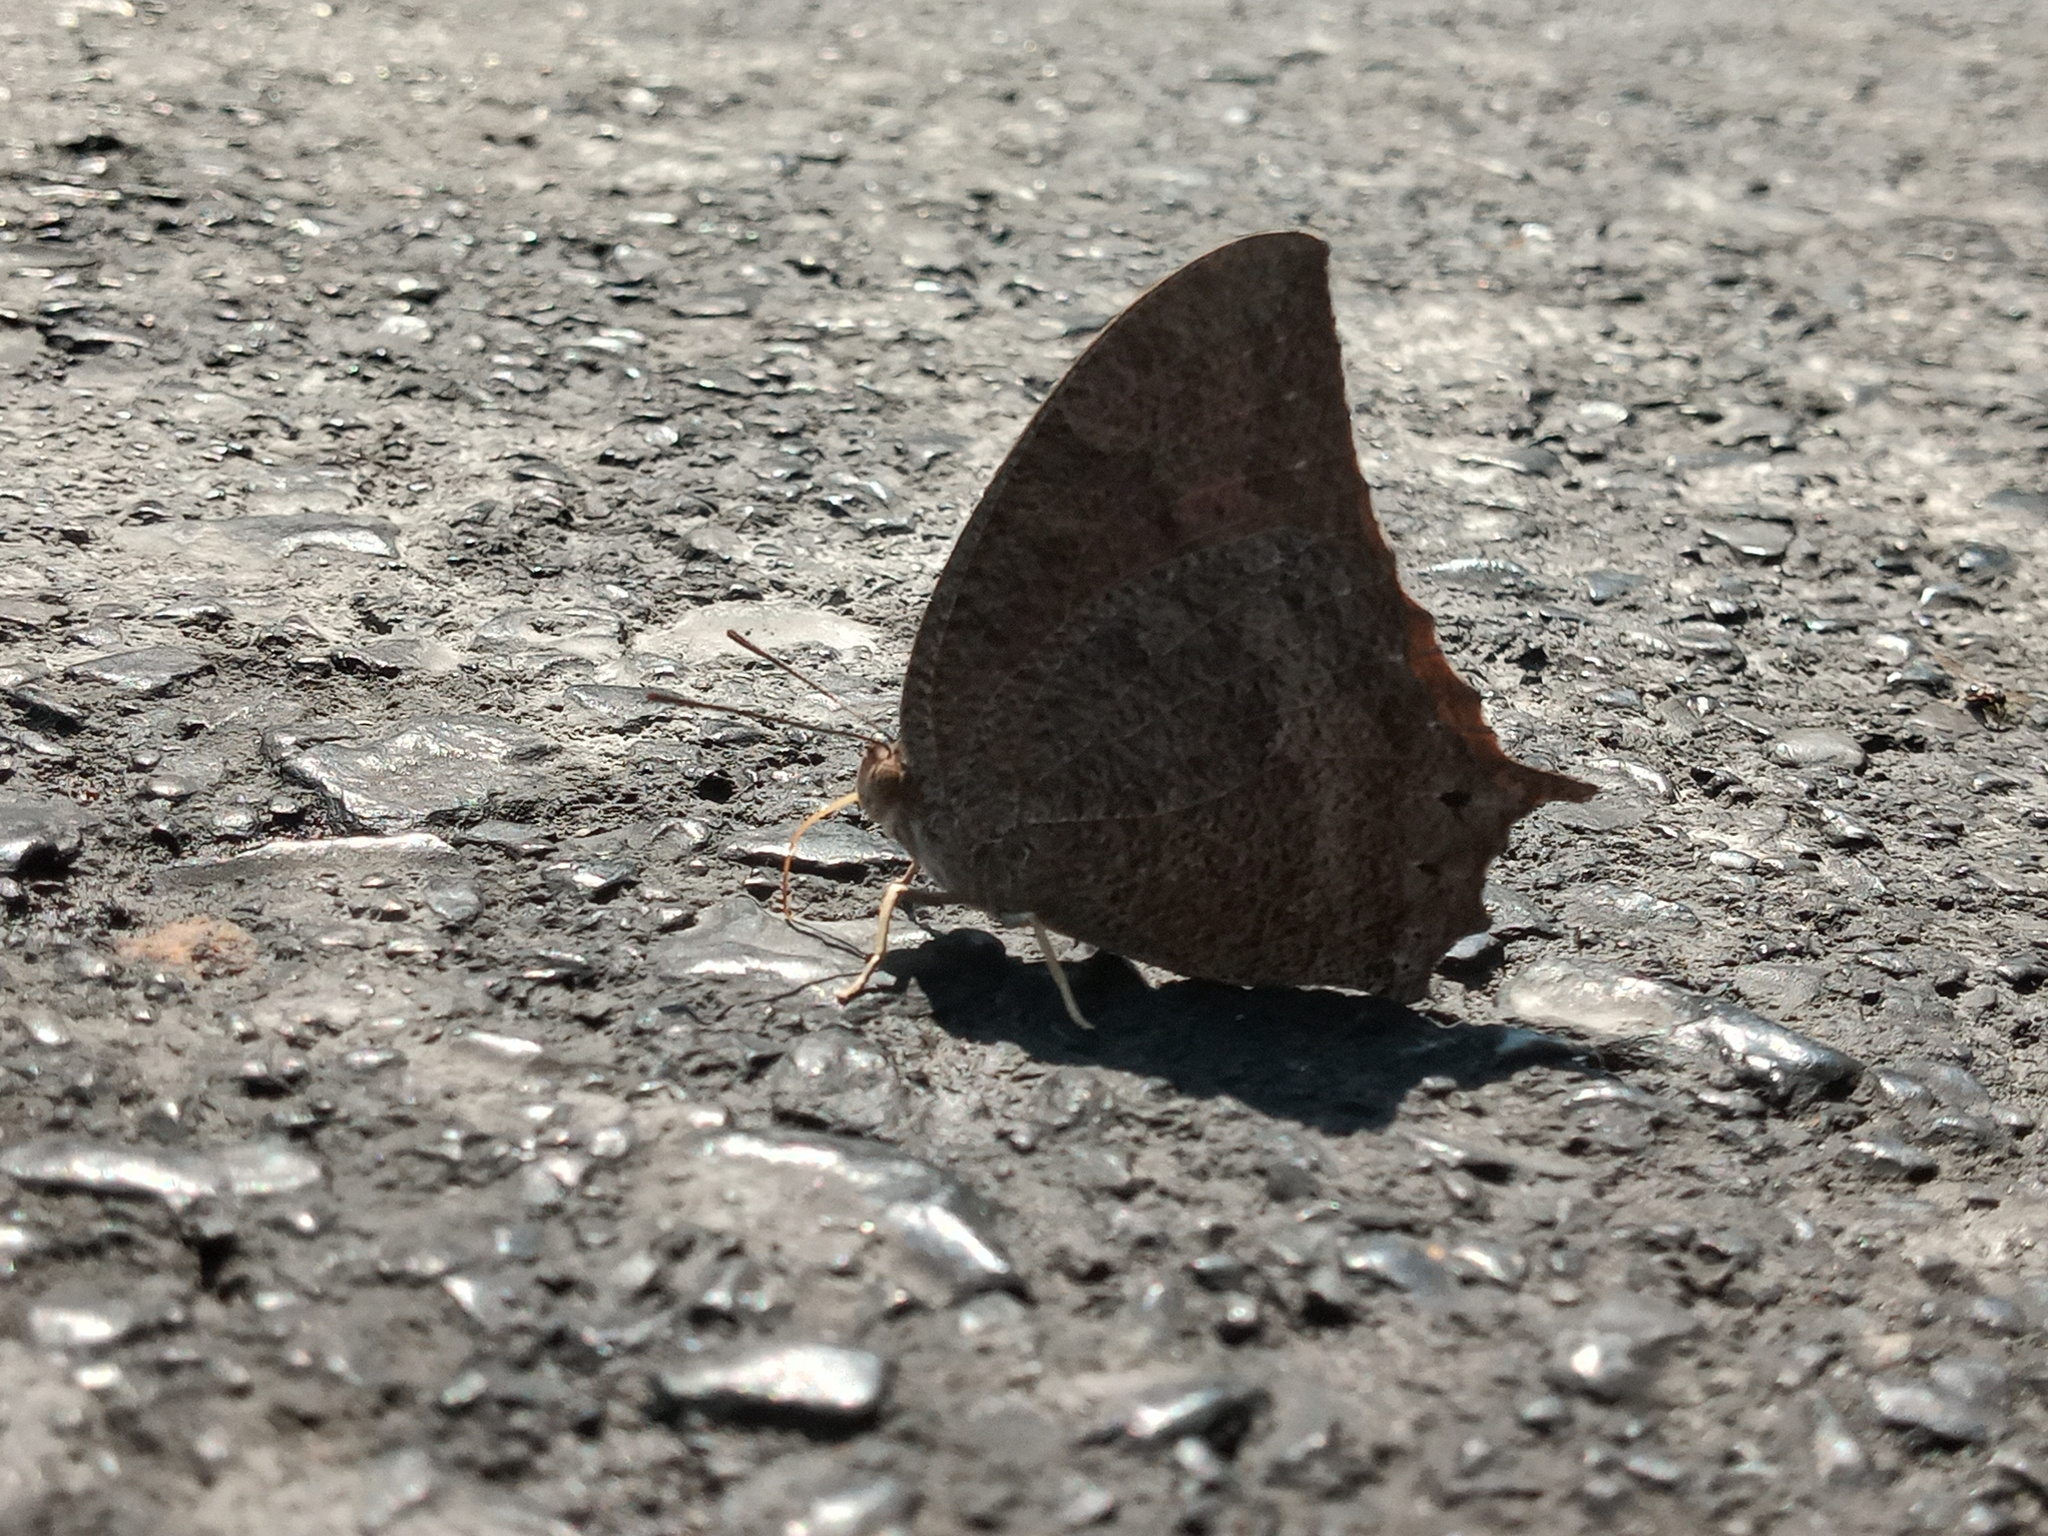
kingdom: Animalia
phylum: Arthropoda
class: Insecta
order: Lepidoptera
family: Nymphalidae
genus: Anaea
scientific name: Anaea aidea
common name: Tropical leafwing
